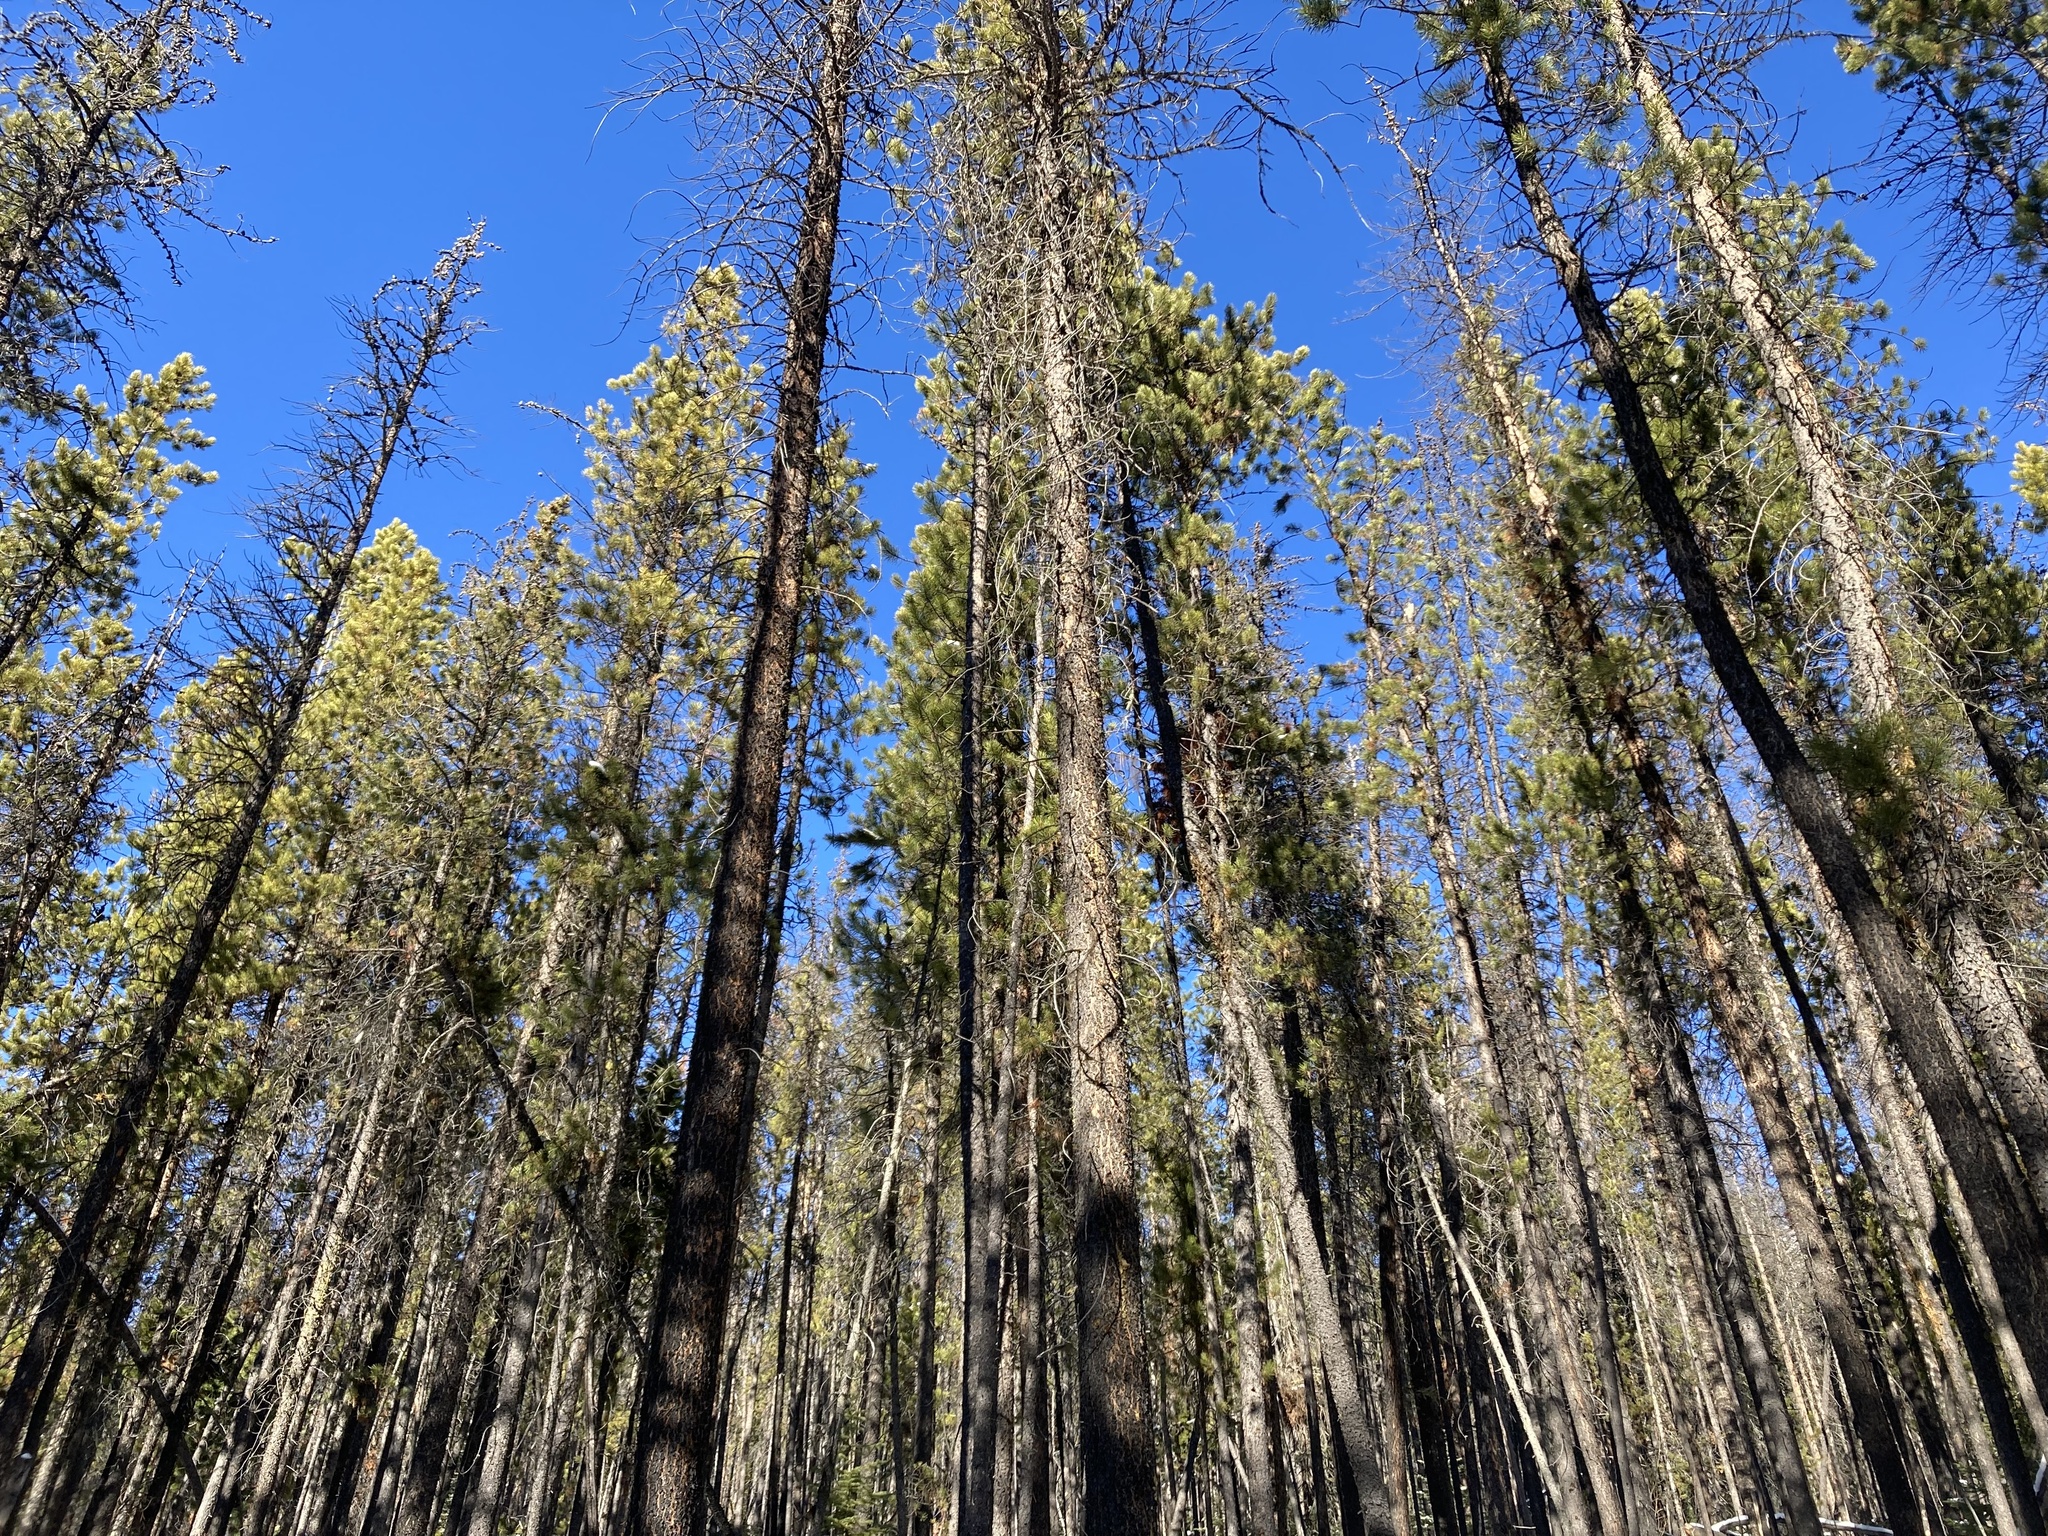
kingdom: Plantae
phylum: Tracheophyta
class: Pinopsida
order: Pinales
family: Pinaceae
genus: Pinus
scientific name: Pinus contorta
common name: Lodgepole pine
